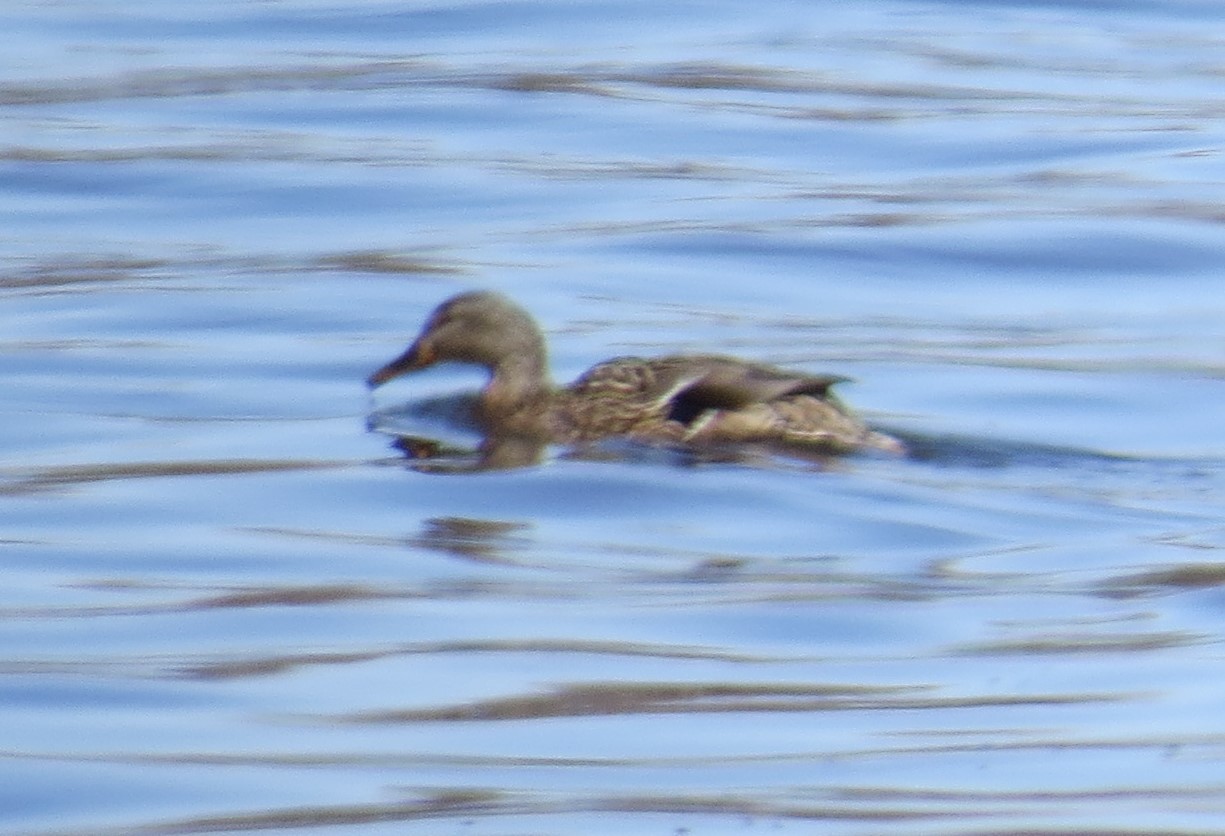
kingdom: Animalia
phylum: Chordata
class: Aves
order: Anseriformes
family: Anatidae
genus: Anas
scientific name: Anas platyrhynchos
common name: Mallard
